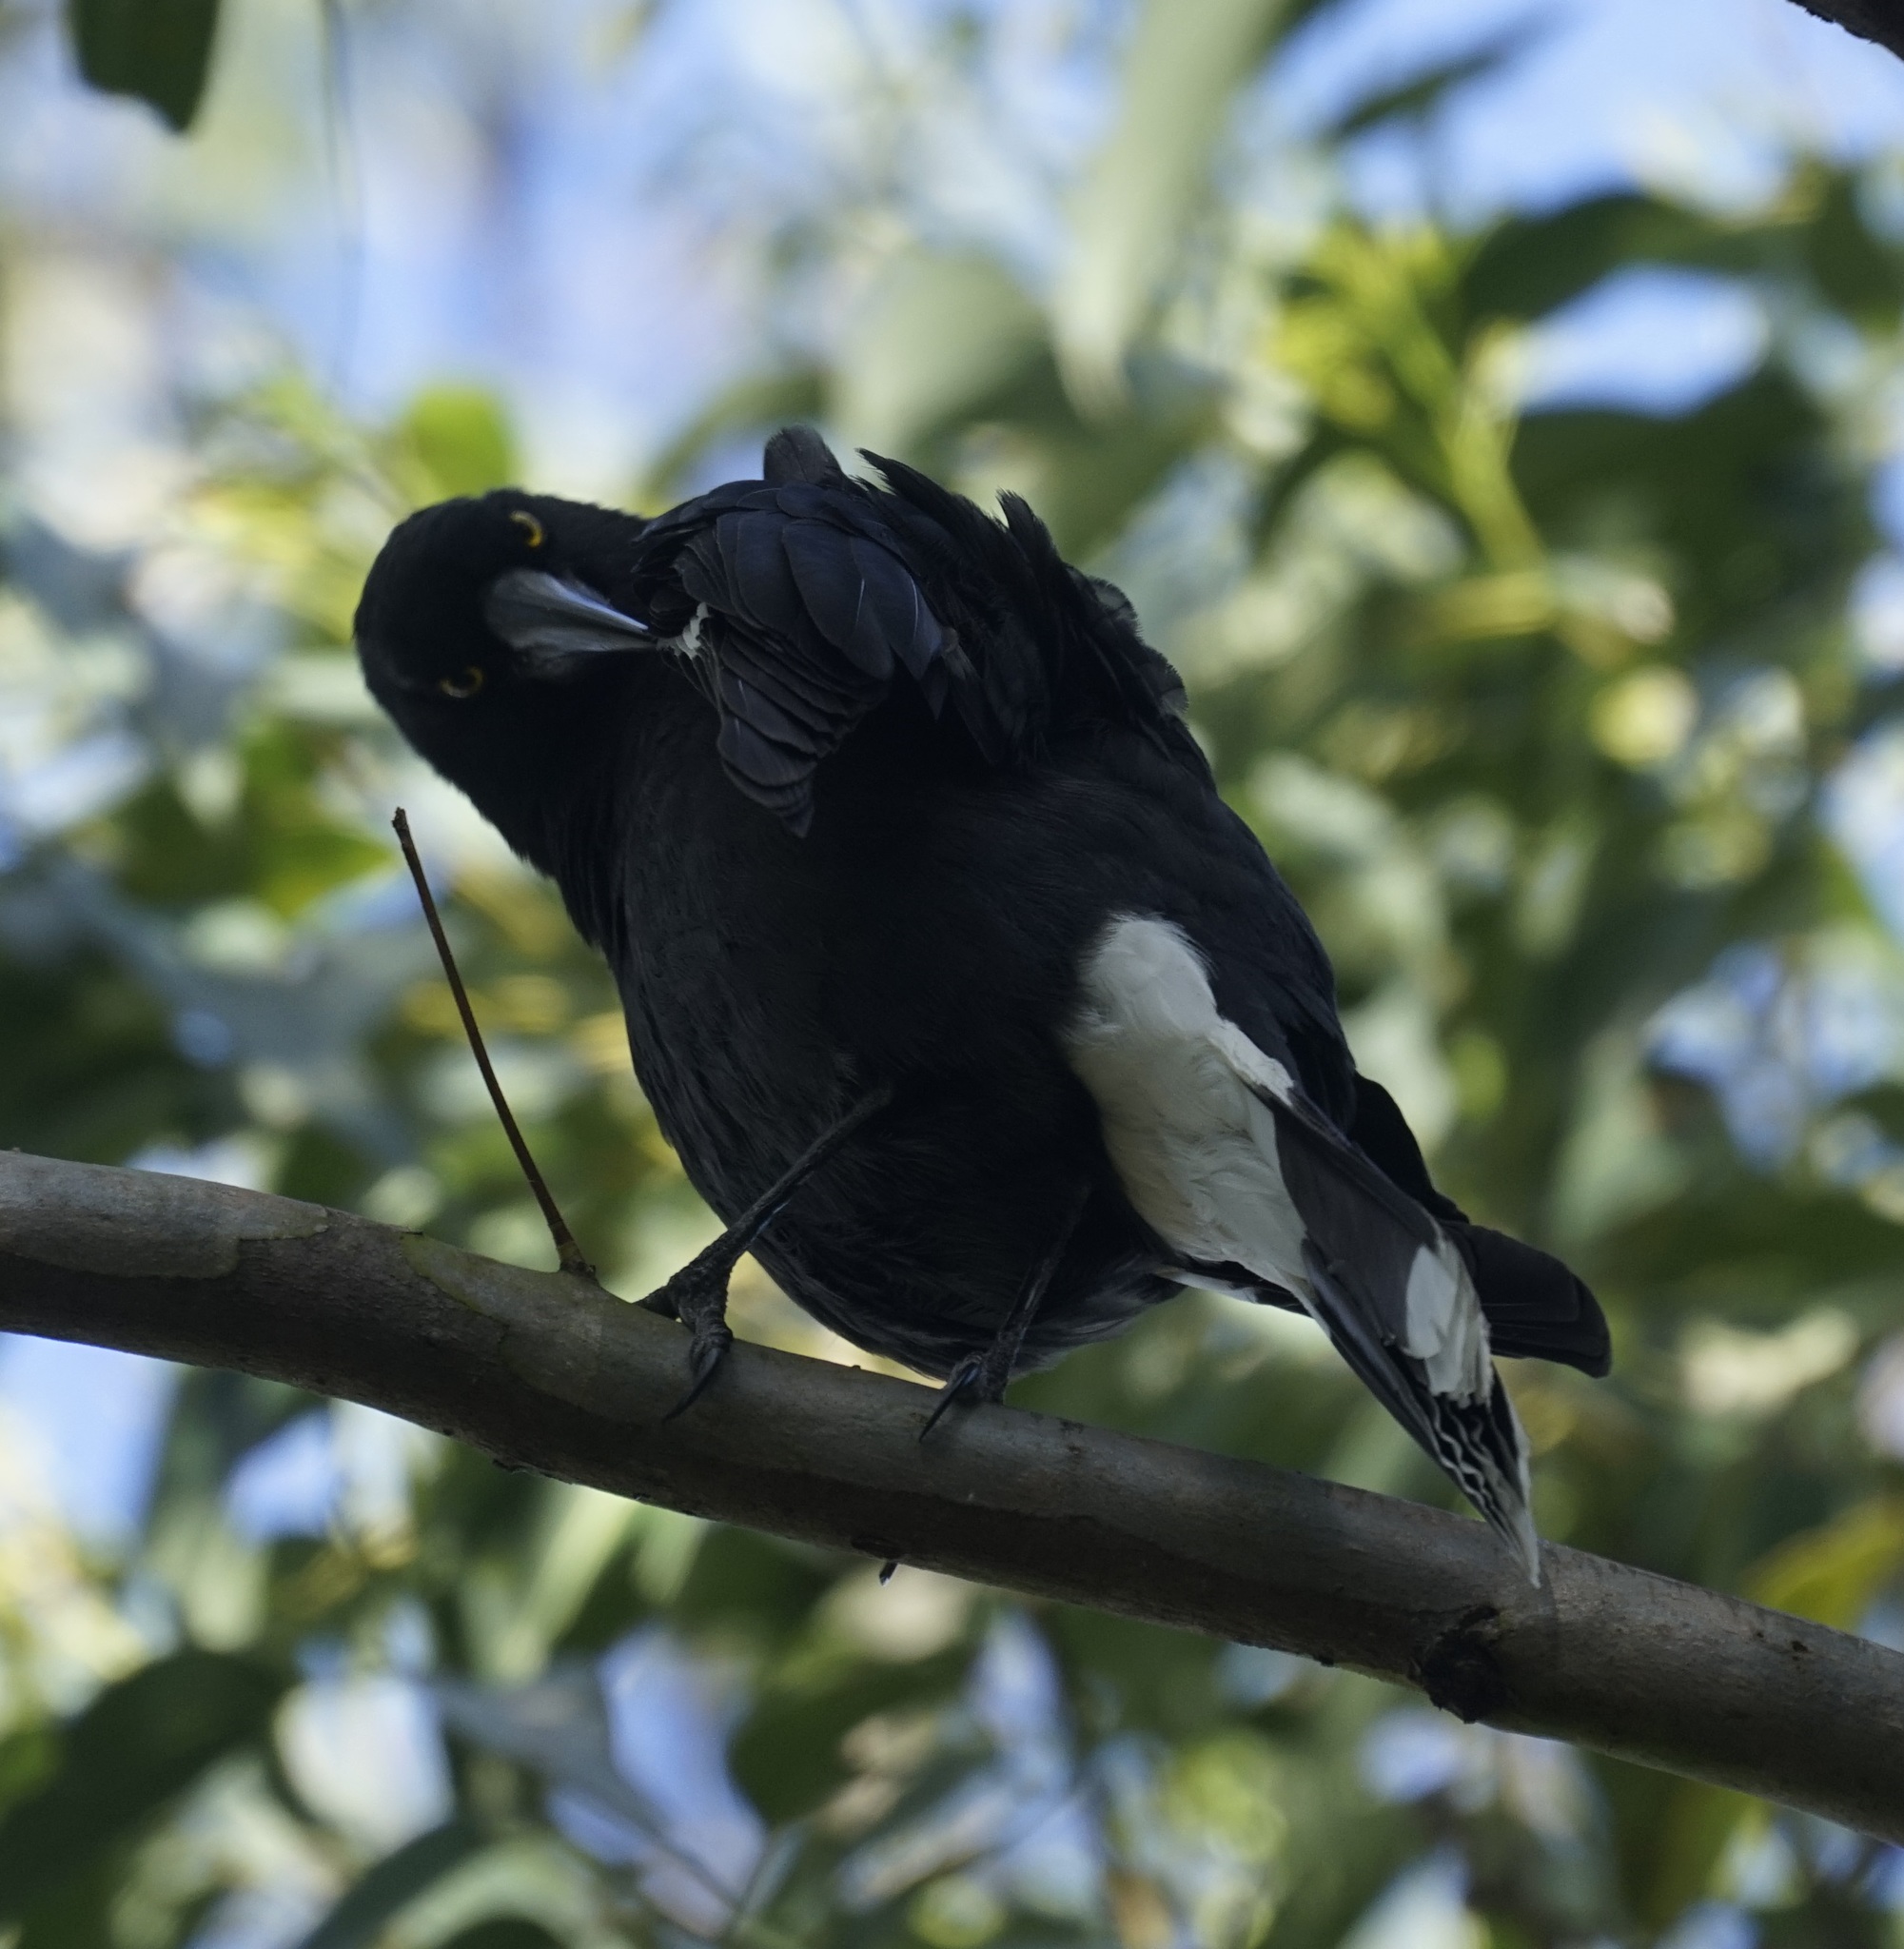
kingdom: Animalia
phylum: Chordata
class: Aves
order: Passeriformes
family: Cracticidae
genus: Strepera
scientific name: Strepera graculina
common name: Pied currawong
